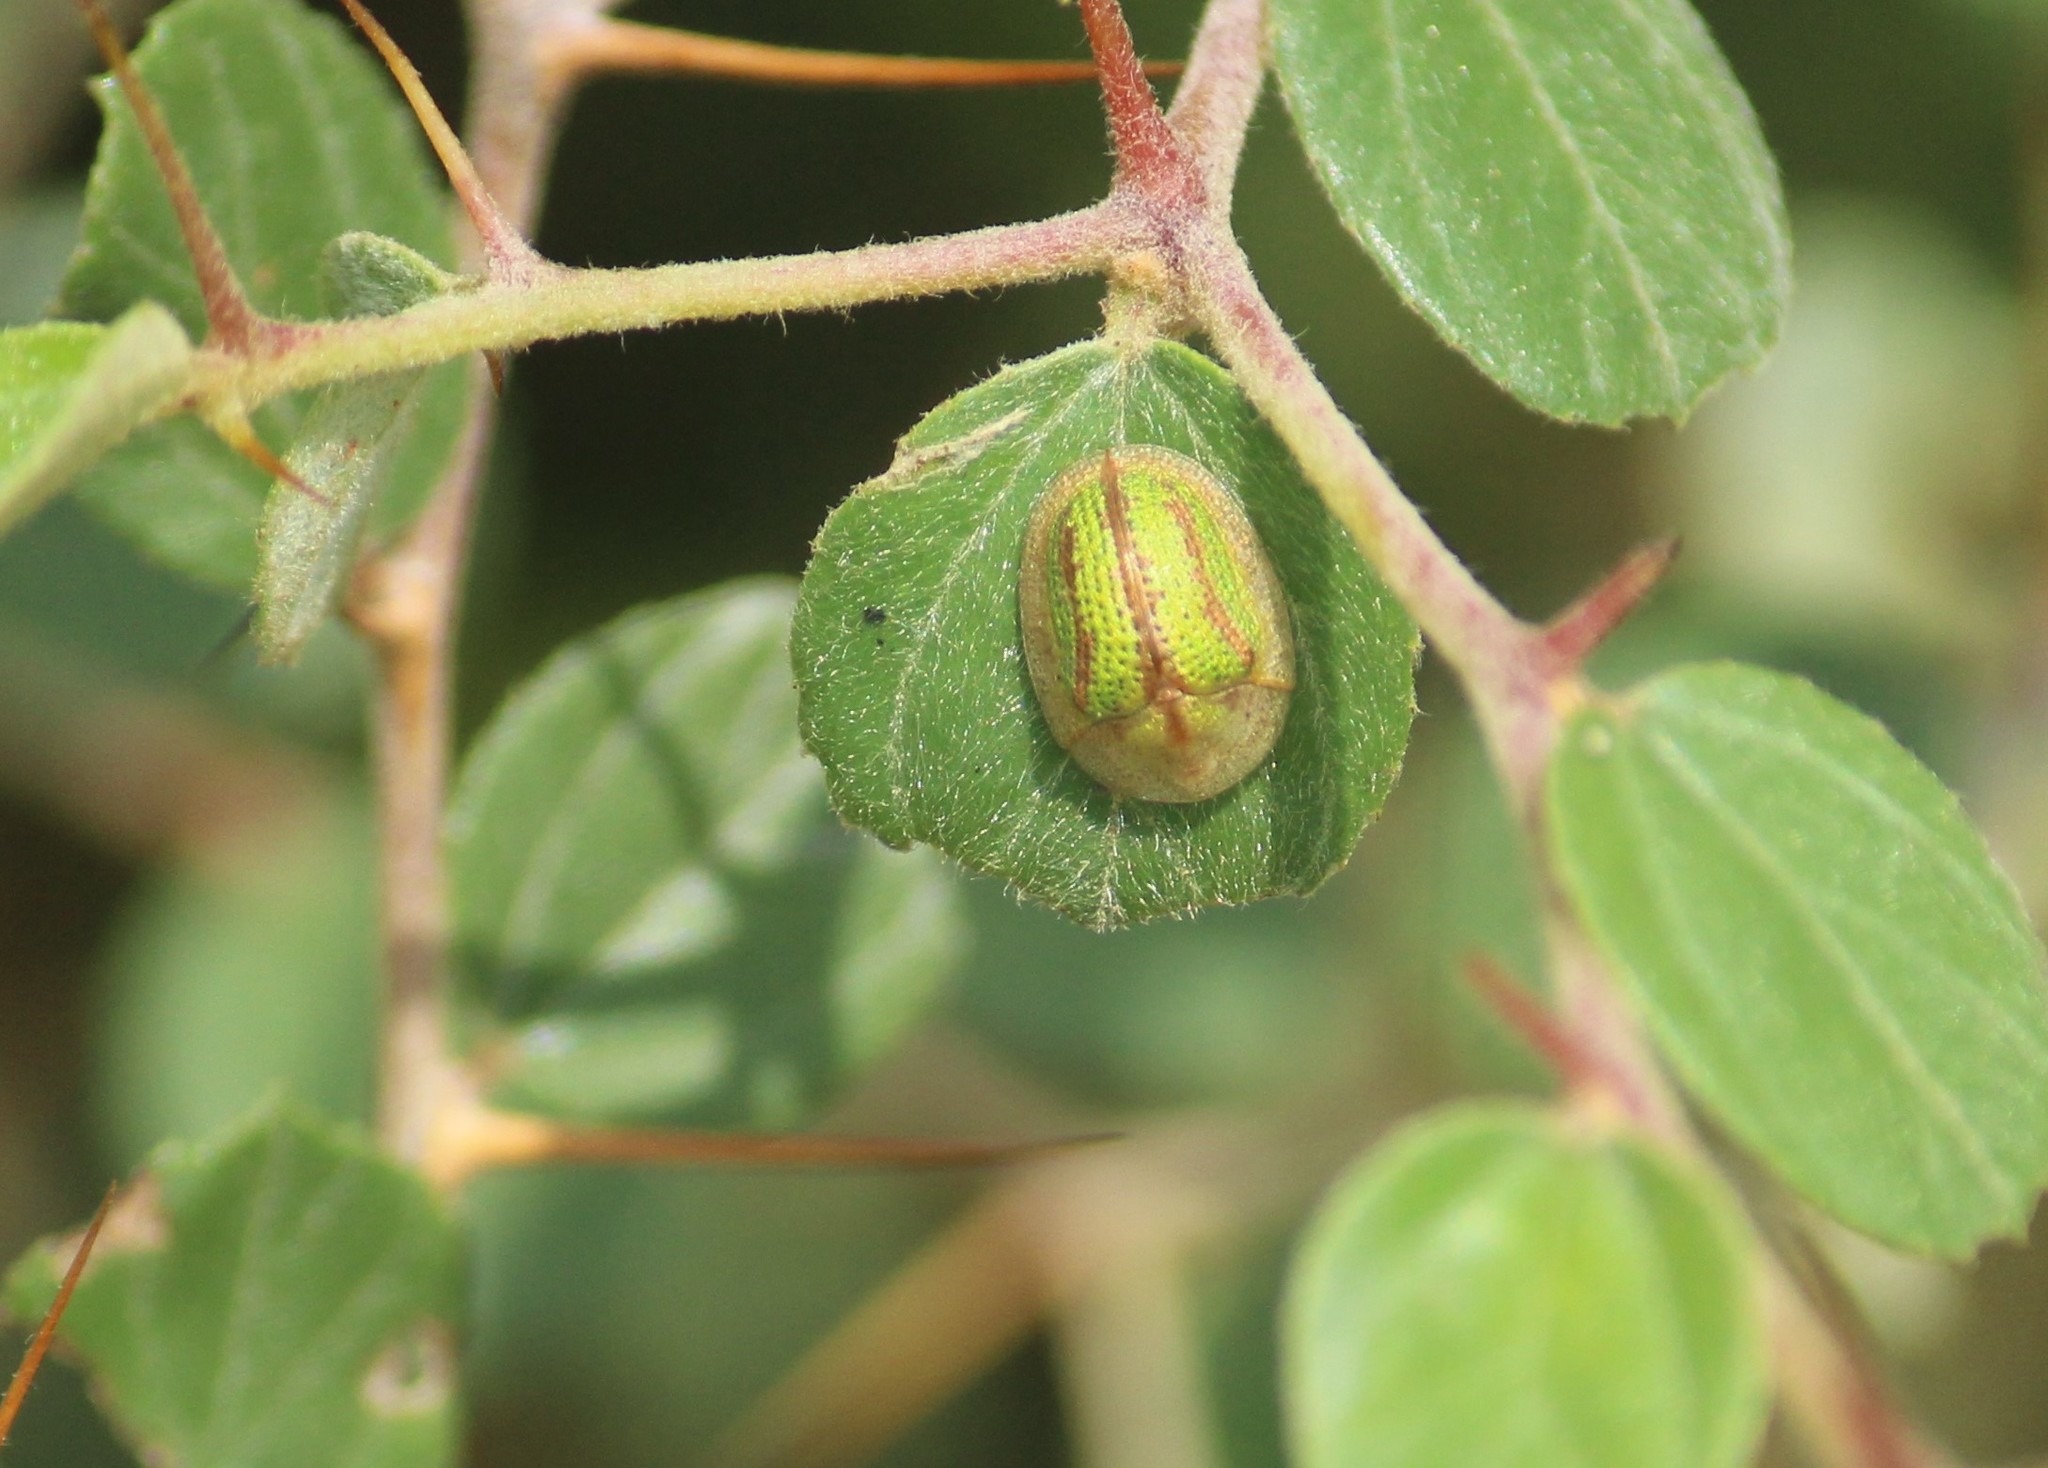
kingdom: Animalia
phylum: Arthropoda
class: Insecta
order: Coleoptera
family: Chrysomelidae
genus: Oocassida
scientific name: Oocassida cruenta
